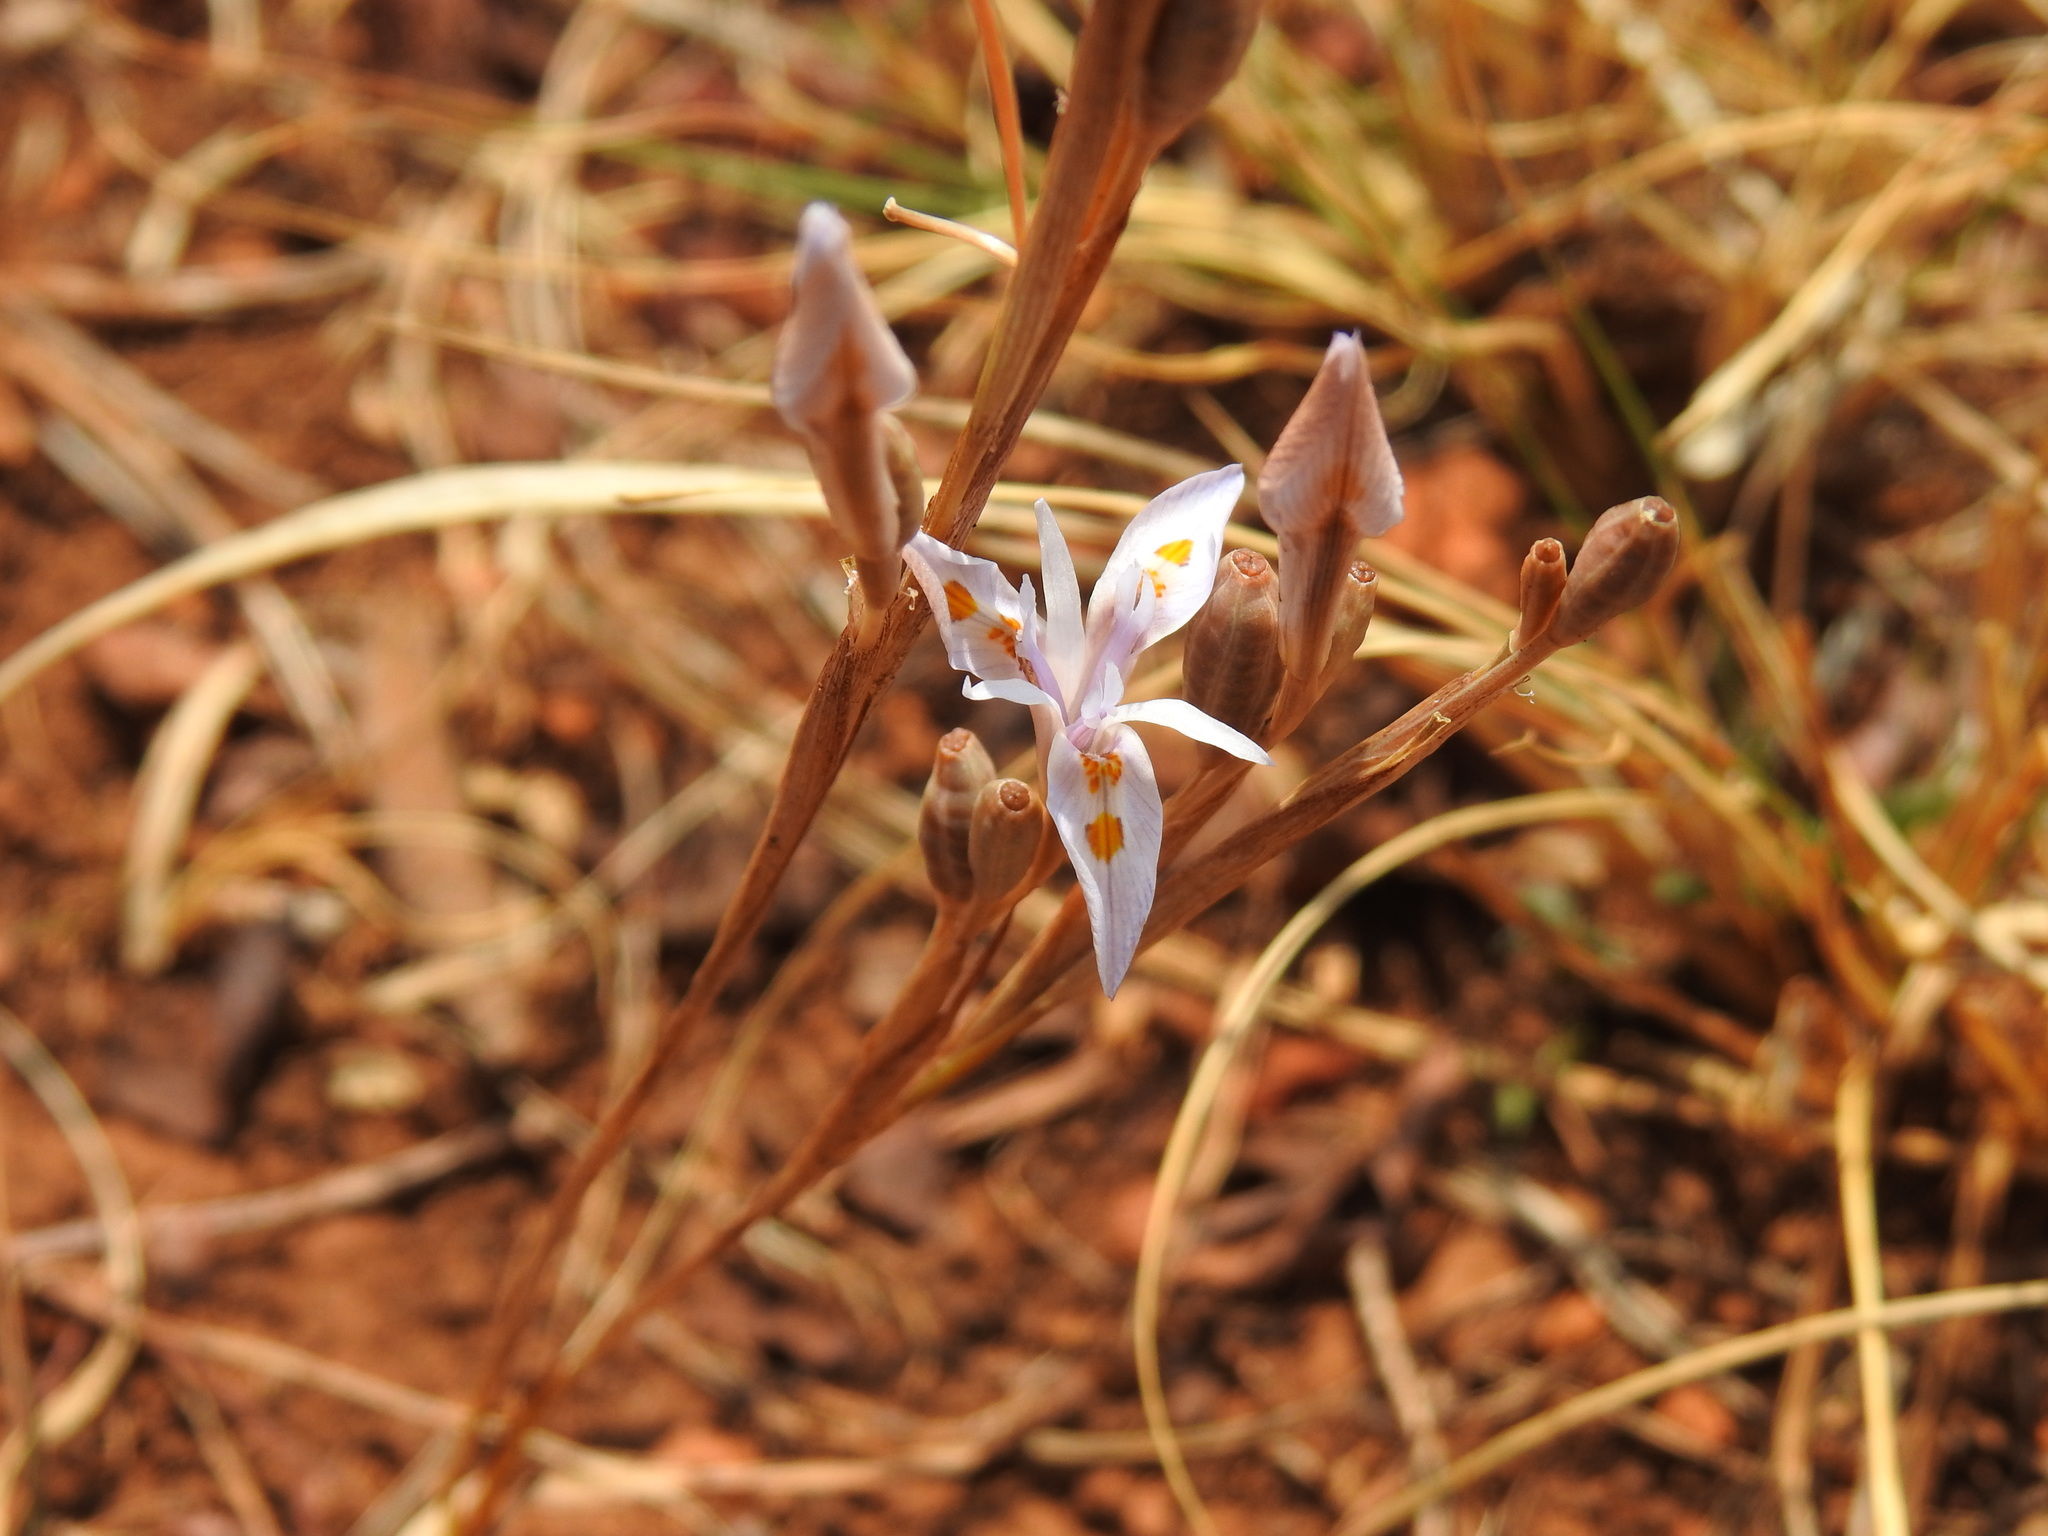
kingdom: Plantae
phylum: Tracheophyta
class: Liliopsida
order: Asparagales
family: Iridaceae
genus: Moraea
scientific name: Moraea stricta
